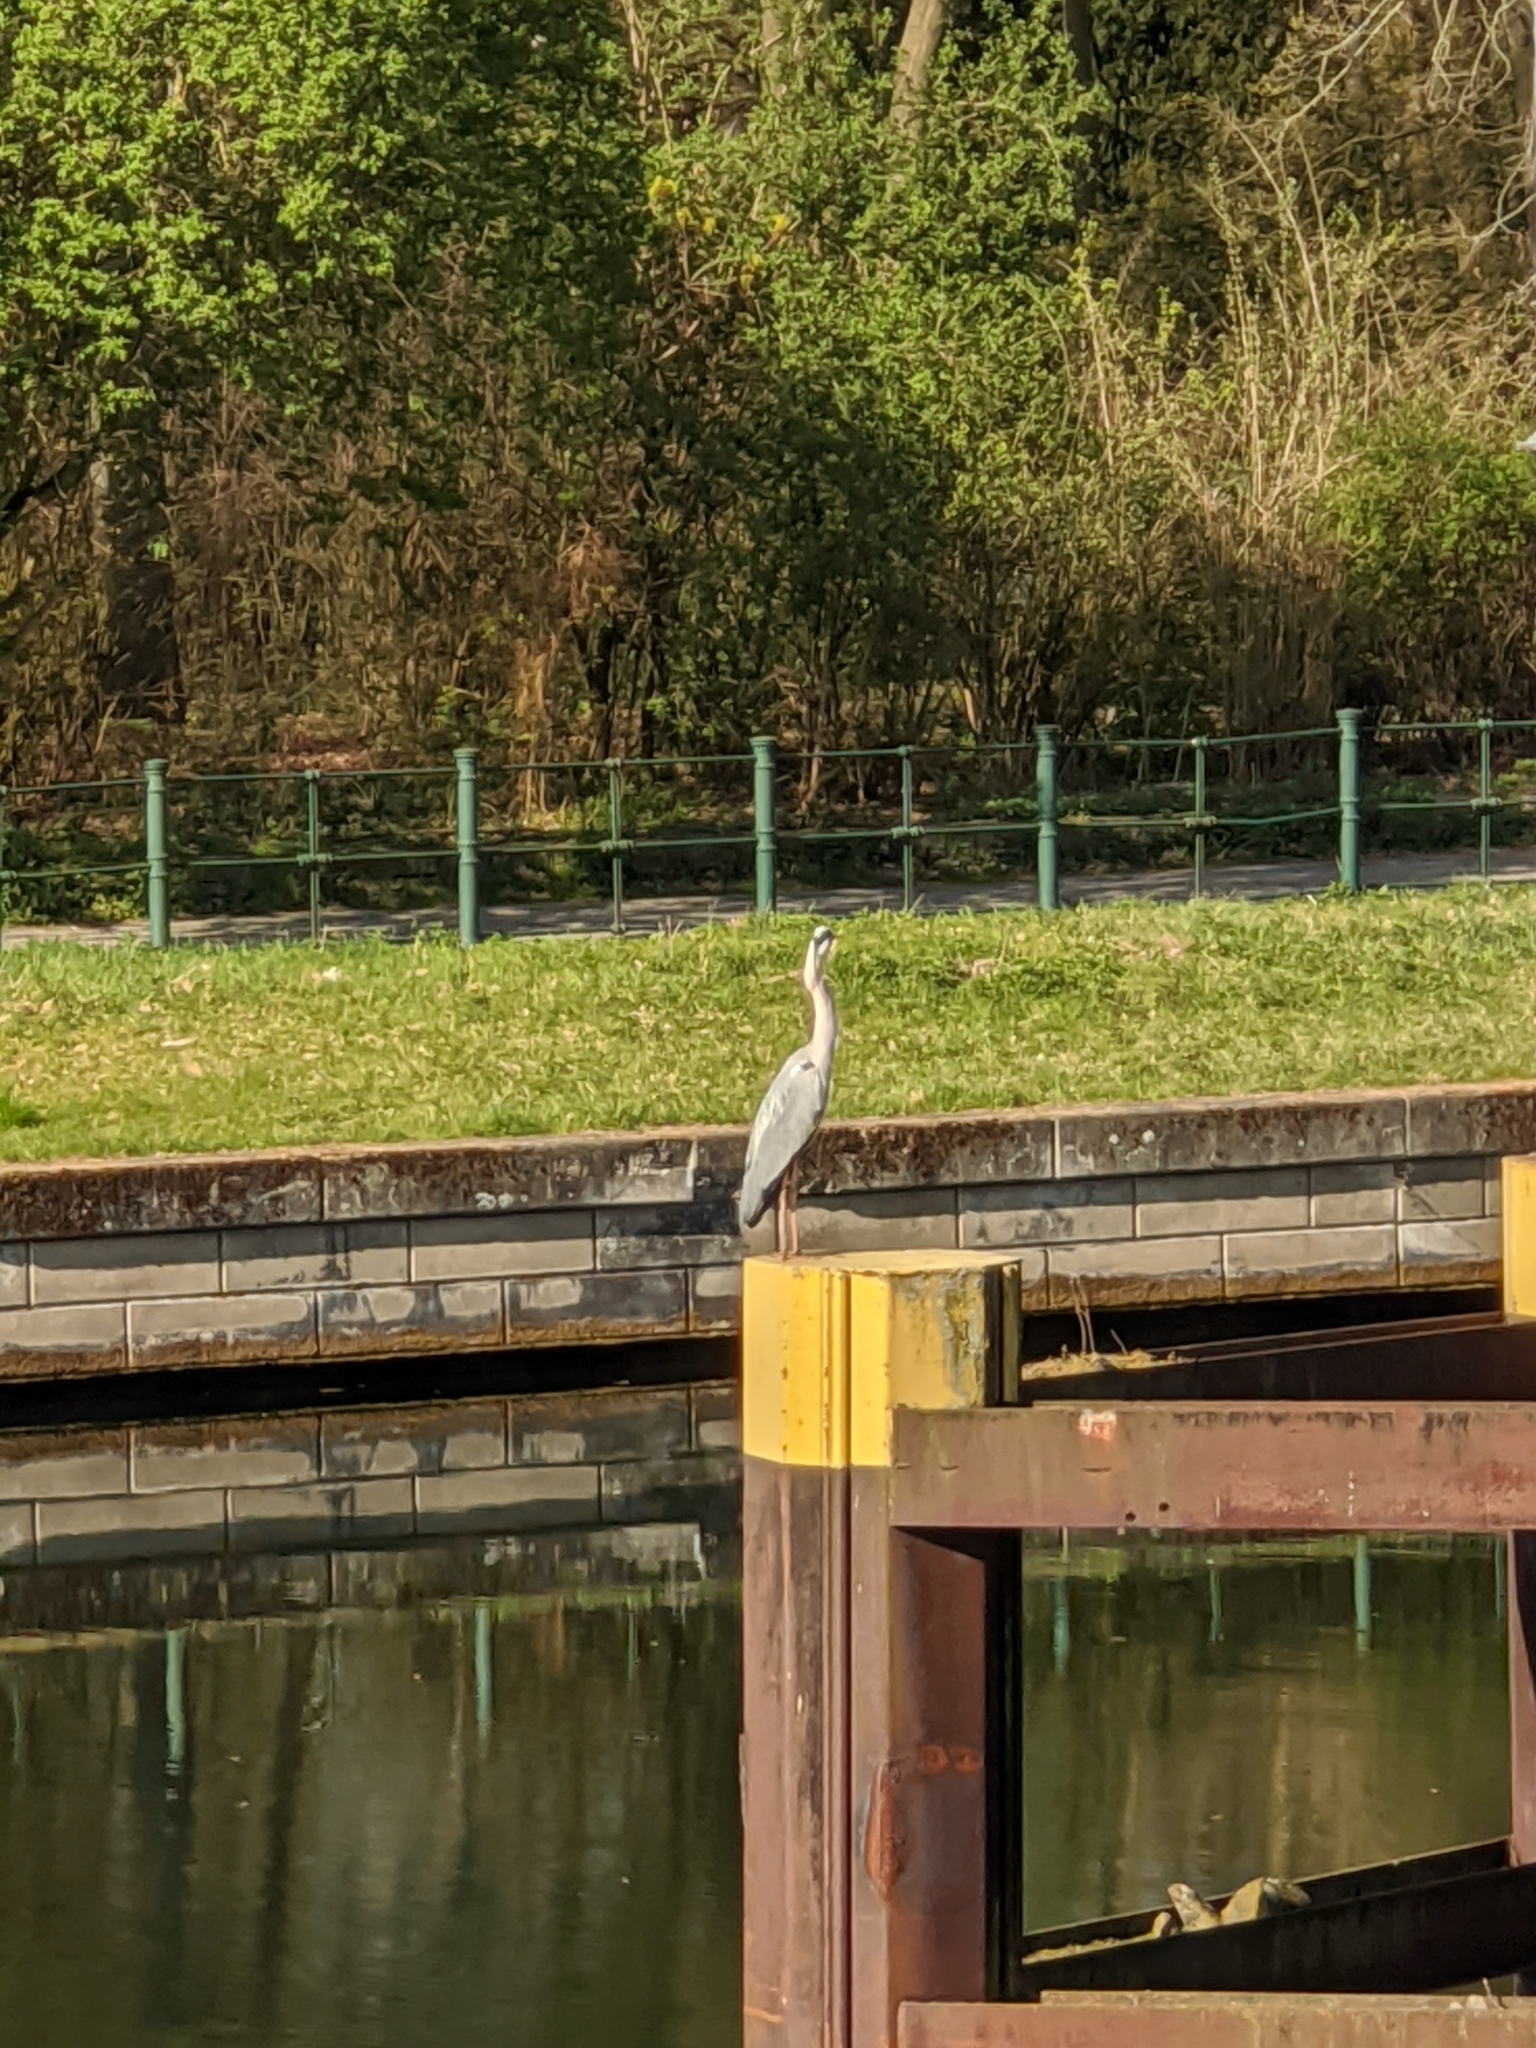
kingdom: Animalia
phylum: Chordata
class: Aves
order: Pelecaniformes
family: Ardeidae
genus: Ardea
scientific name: Ardea cinerea
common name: Grey heron
